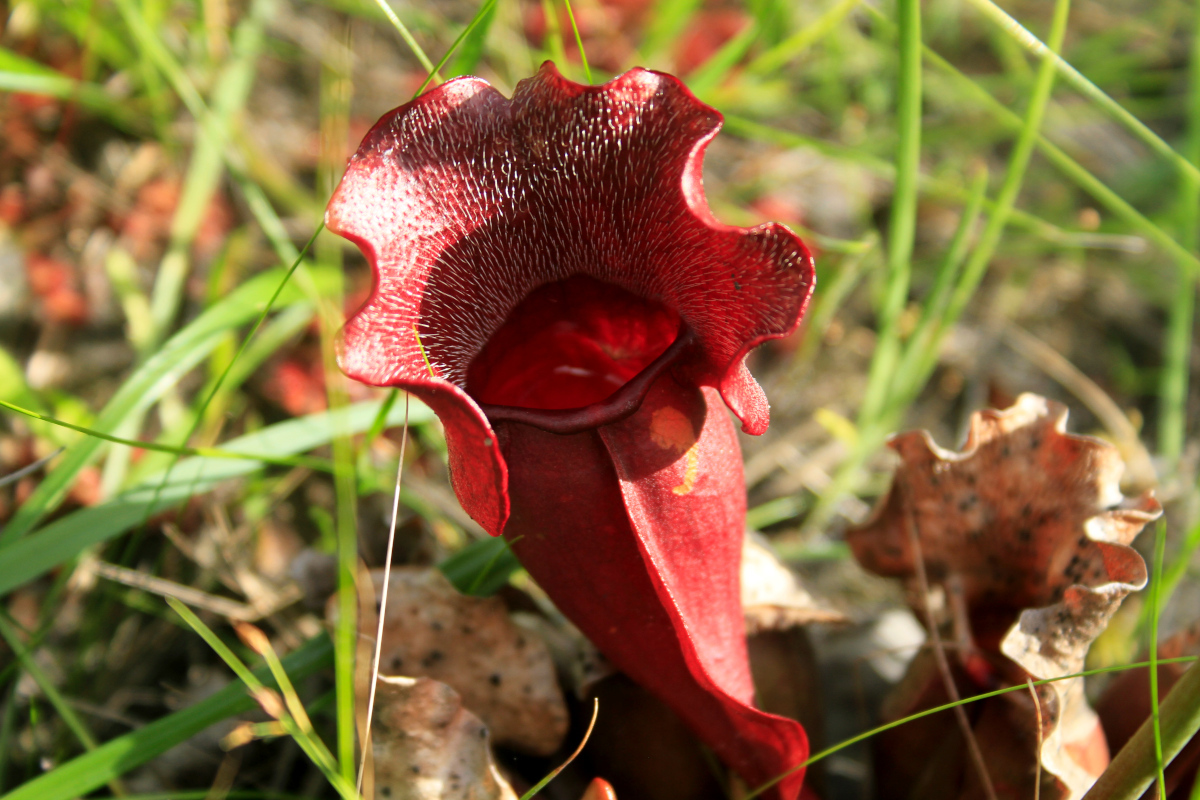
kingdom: Plantae
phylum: Tracheophyta
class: Magnoliopsida
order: Ericales
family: Sarraceniaceae
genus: Sarracenia
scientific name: Sarracenia purpurea
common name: Pitcherplant
